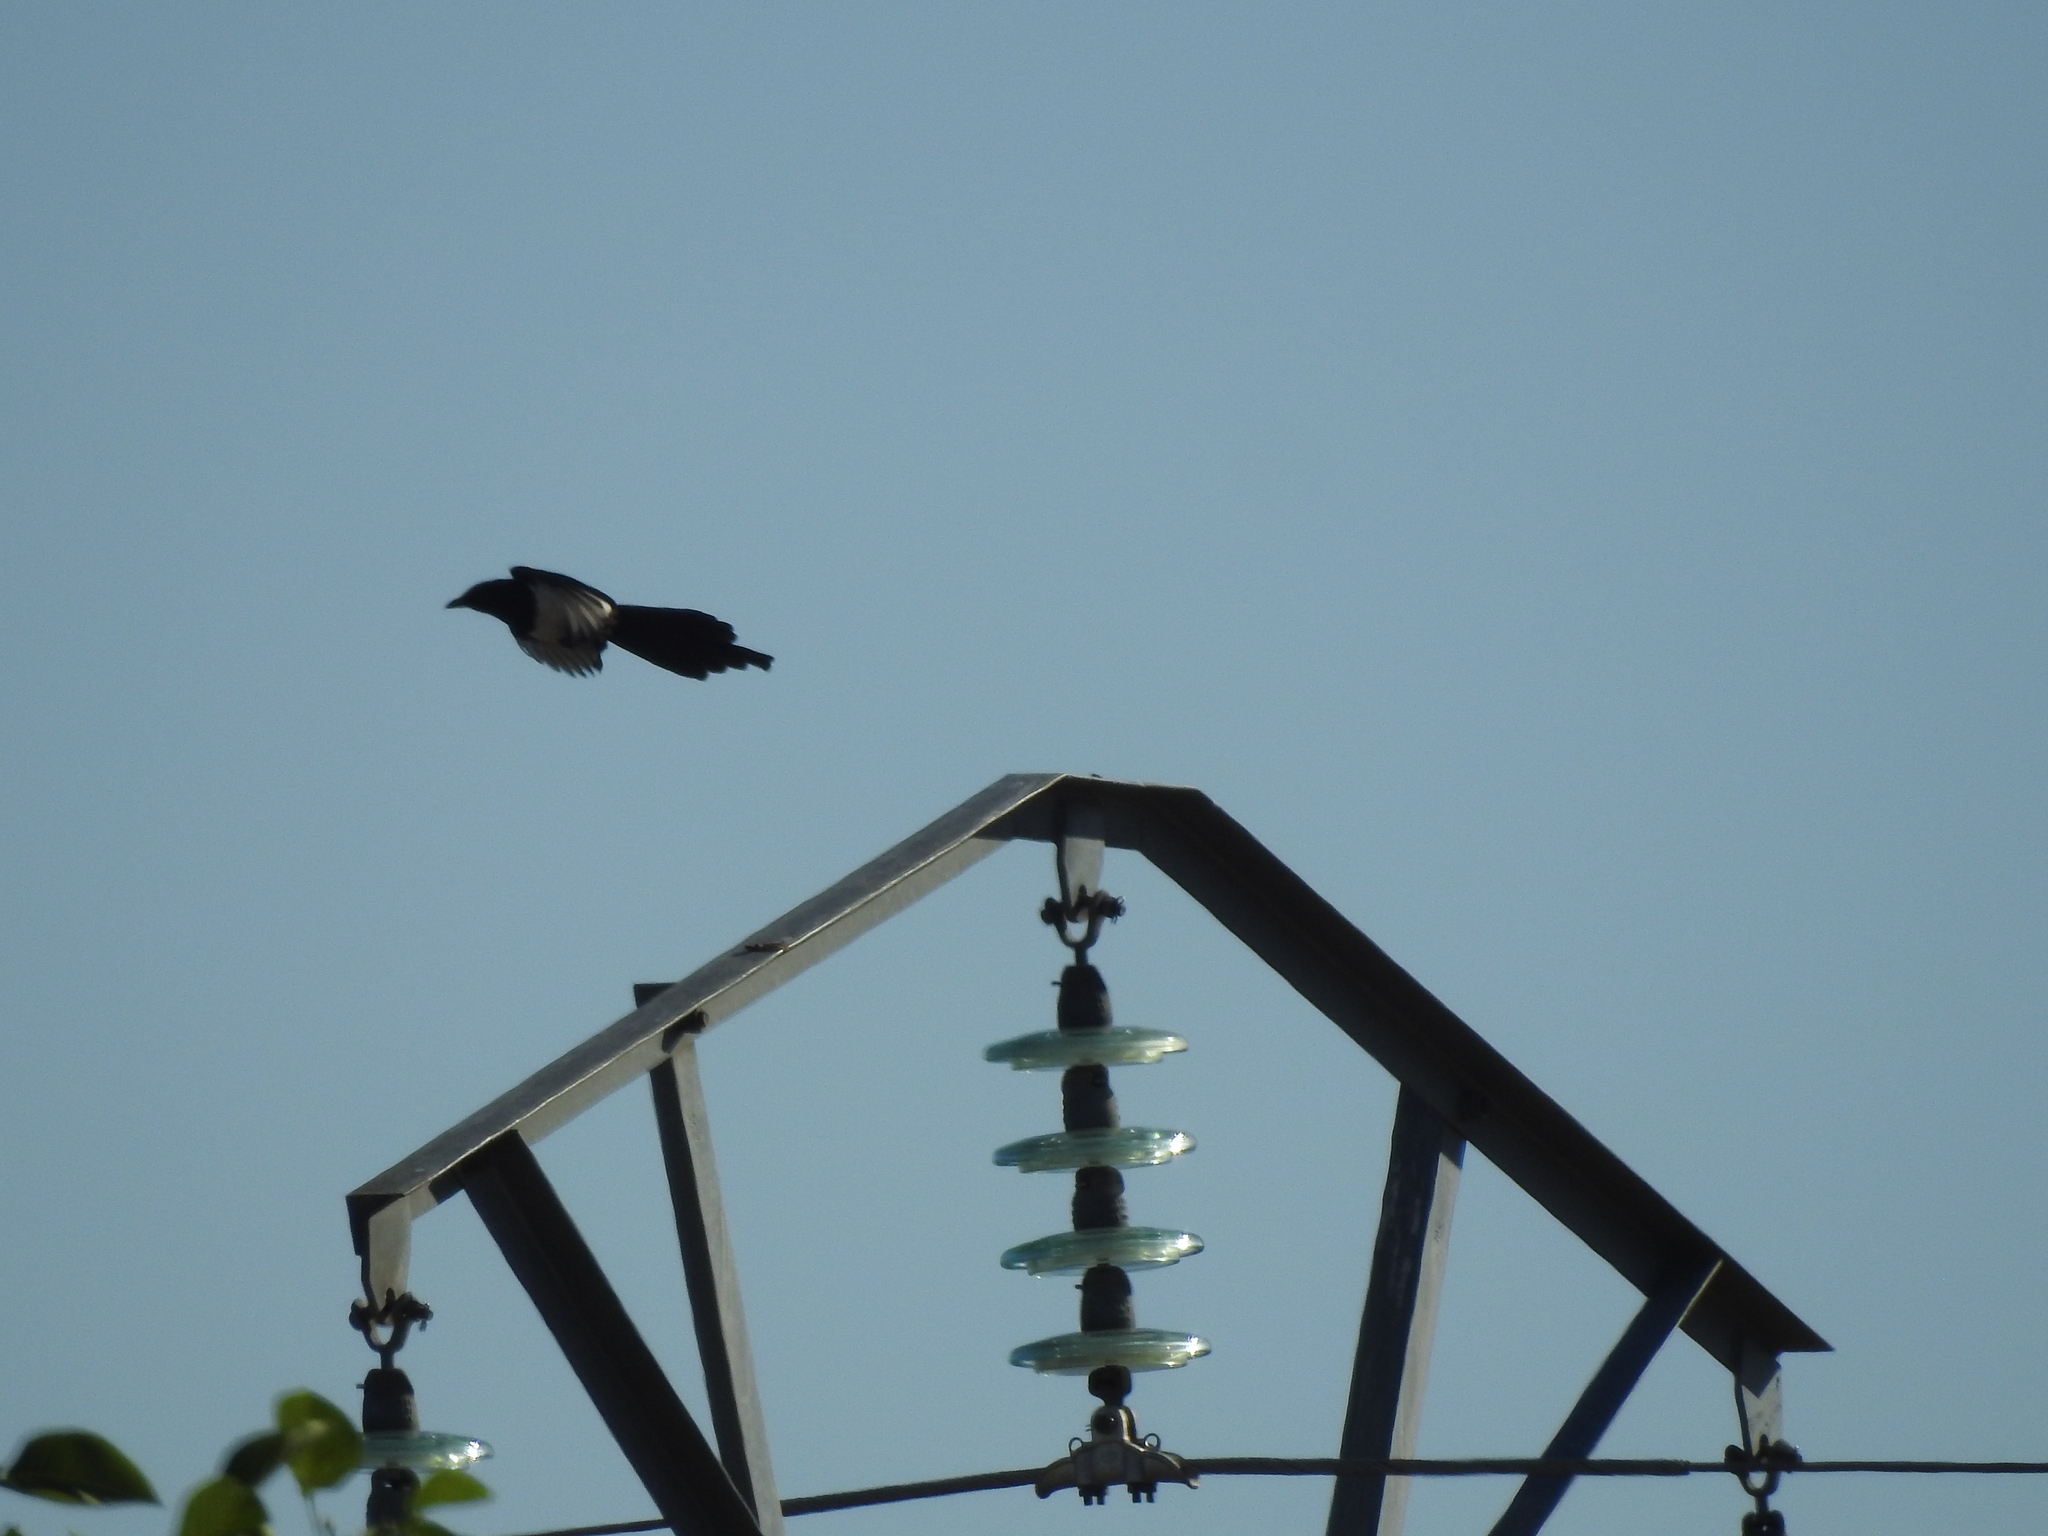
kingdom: Animalia
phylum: Chordata
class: Aves
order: Passeriformes
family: Corvidae
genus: Pica
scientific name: Pica pica
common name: Eurasian magpie
